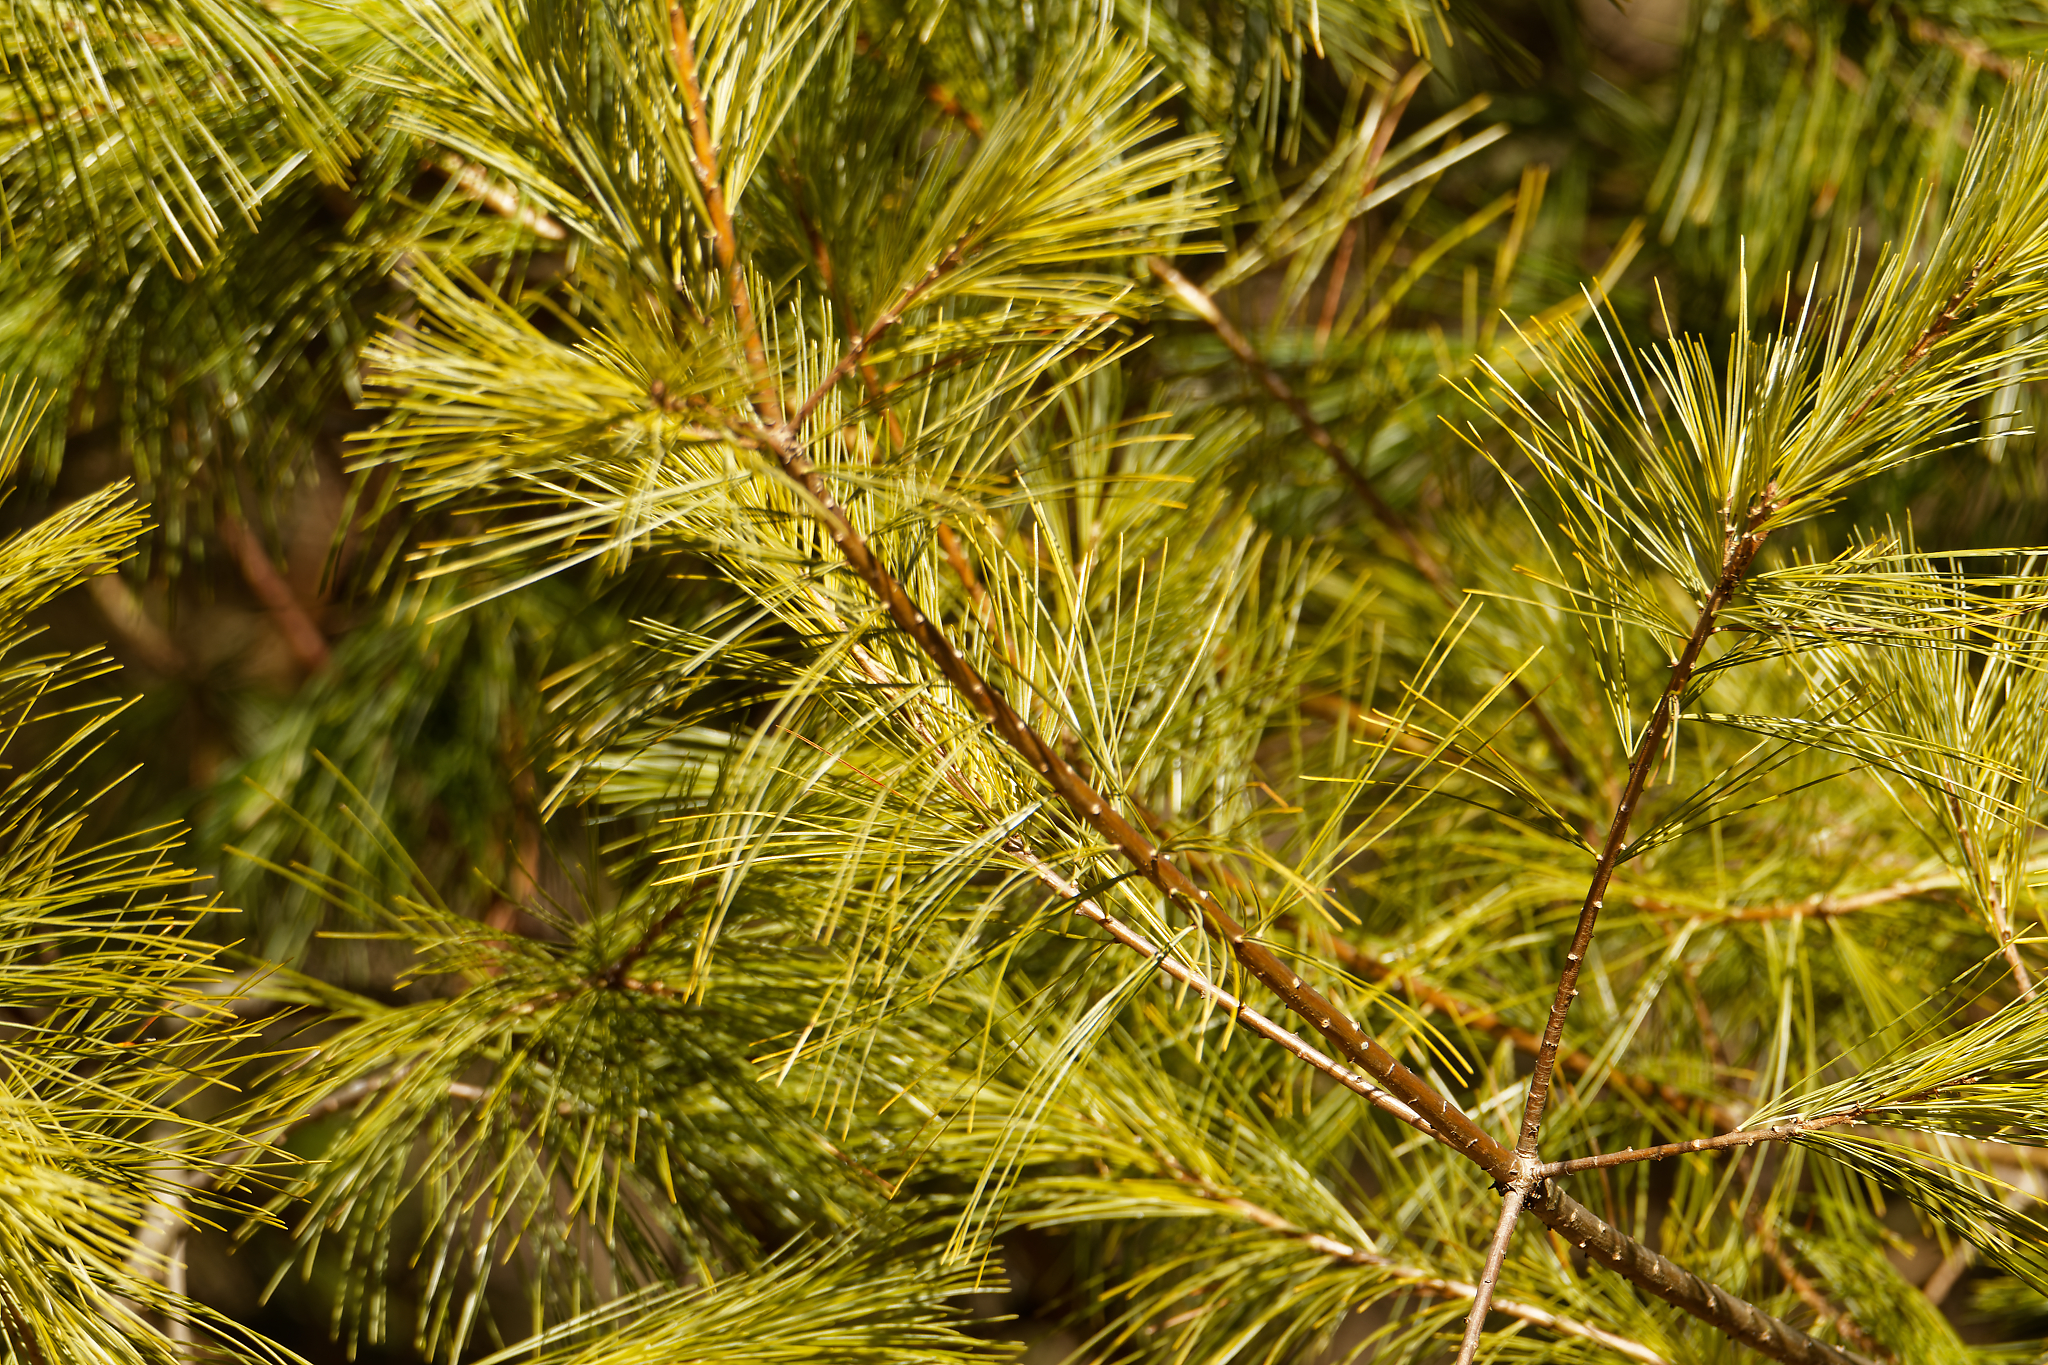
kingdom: Plantae
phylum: Tracheophyta
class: Pinopsida
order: Pinales
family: Pinaceae
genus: Pinus
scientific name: Pinus strobus
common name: Weymouth pine
